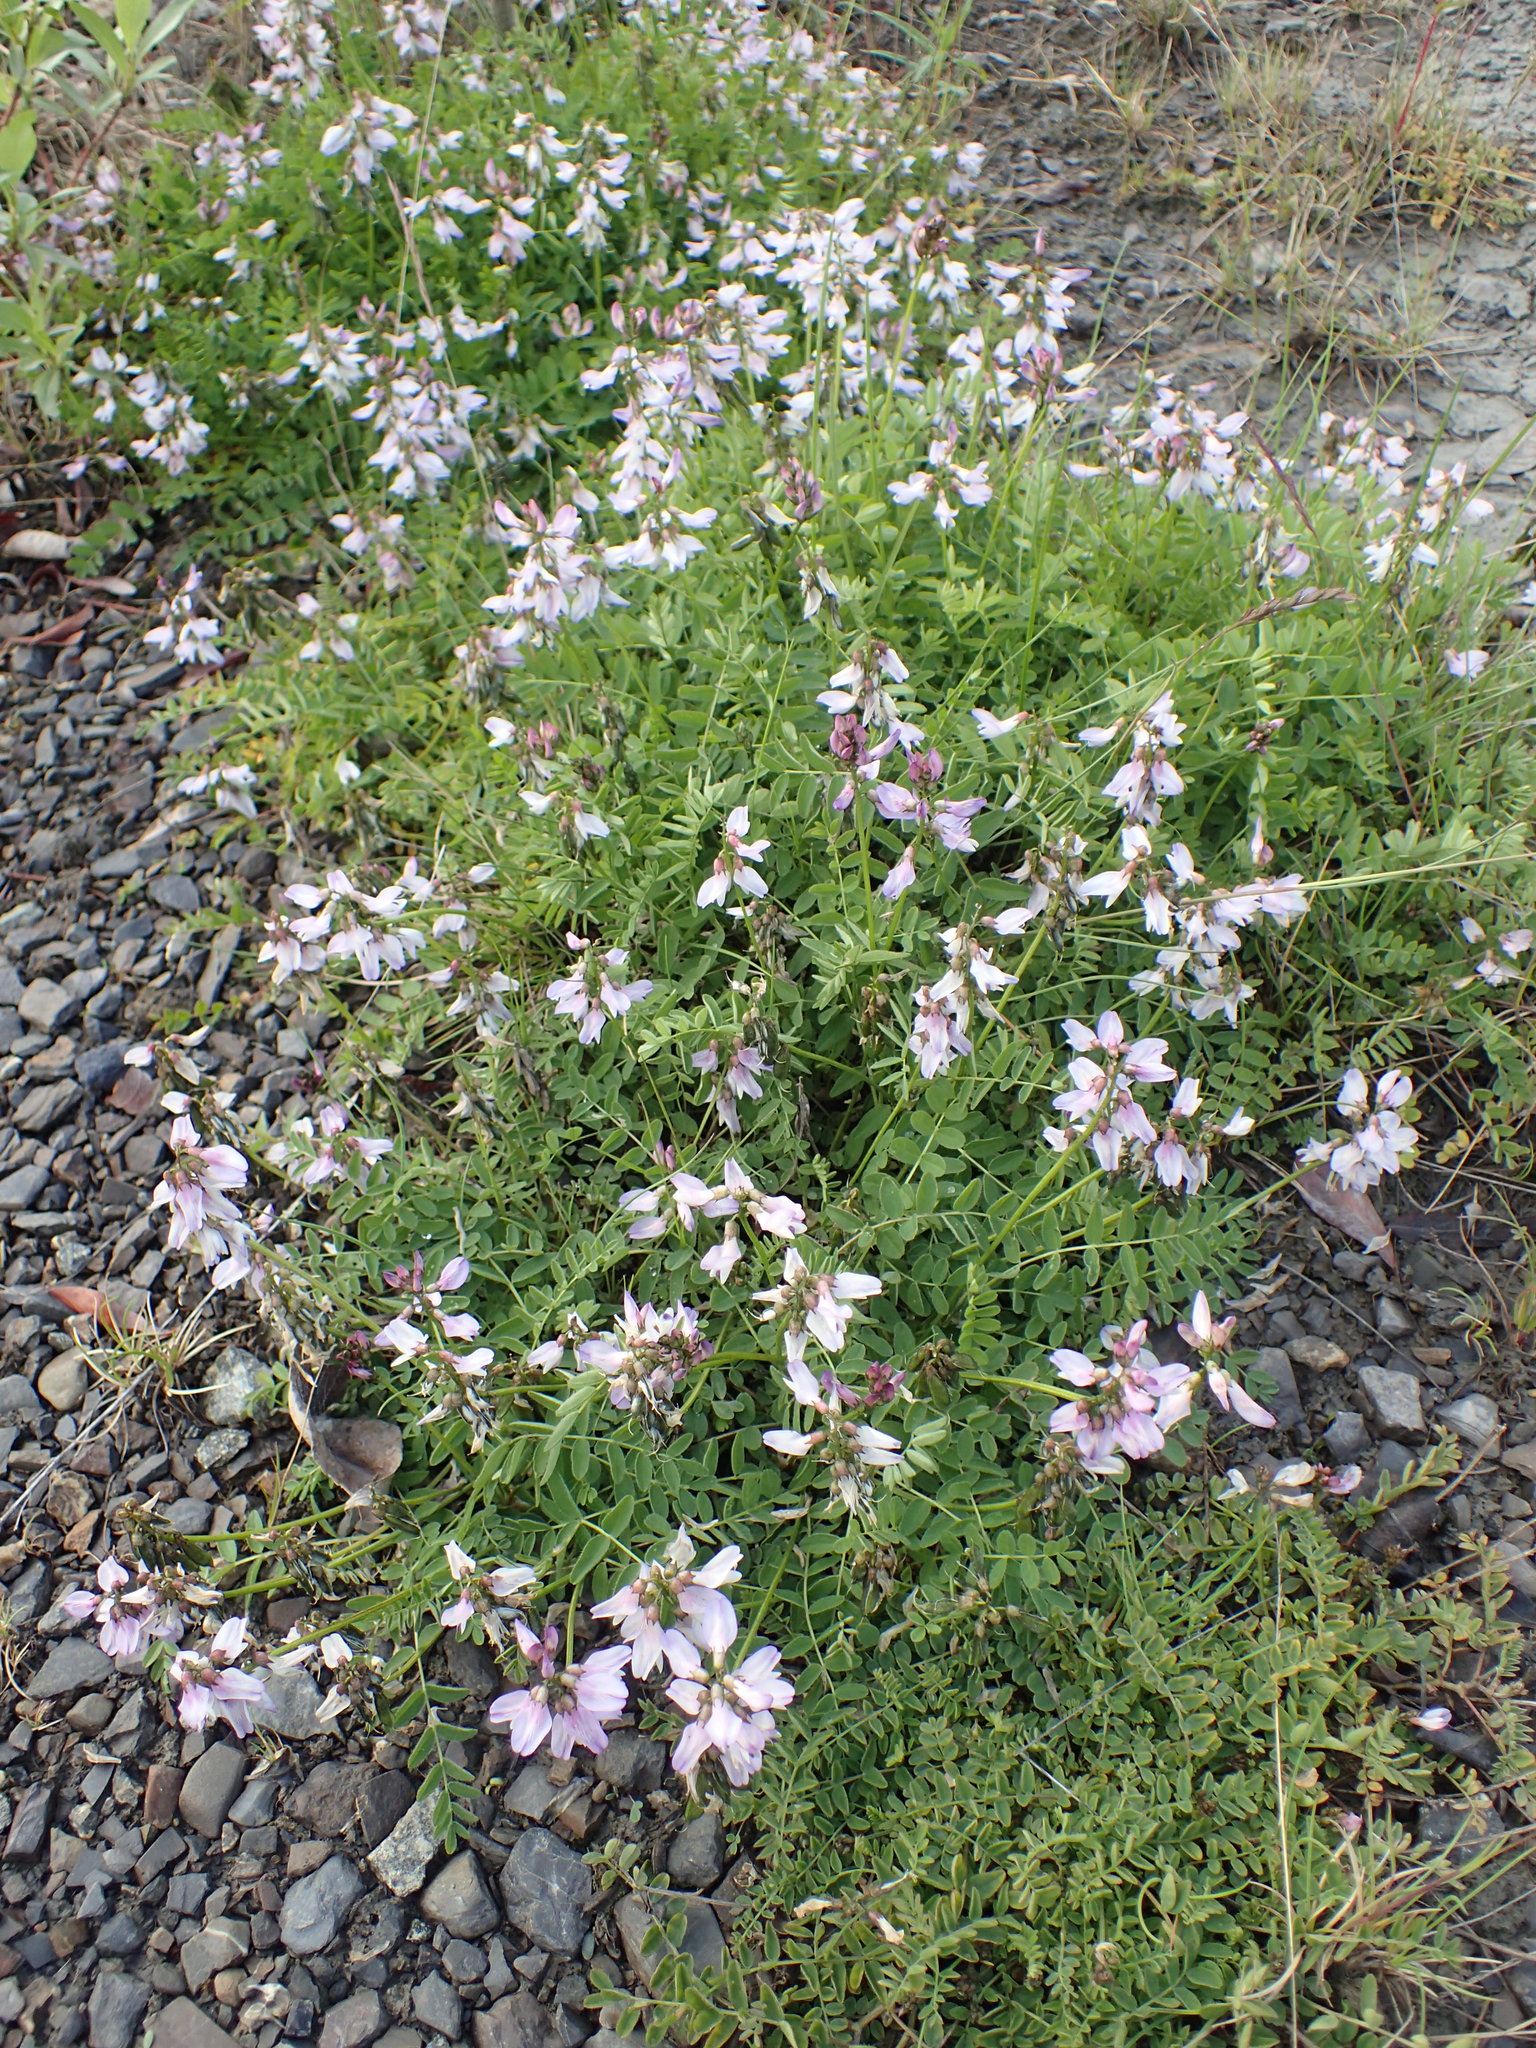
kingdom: Plantae
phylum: Tracheophyta
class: Magnoliopsida
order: Fabales
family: Fabaceae
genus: Astragalus
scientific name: Astragalus alpinus
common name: Alpine milk-vetch
